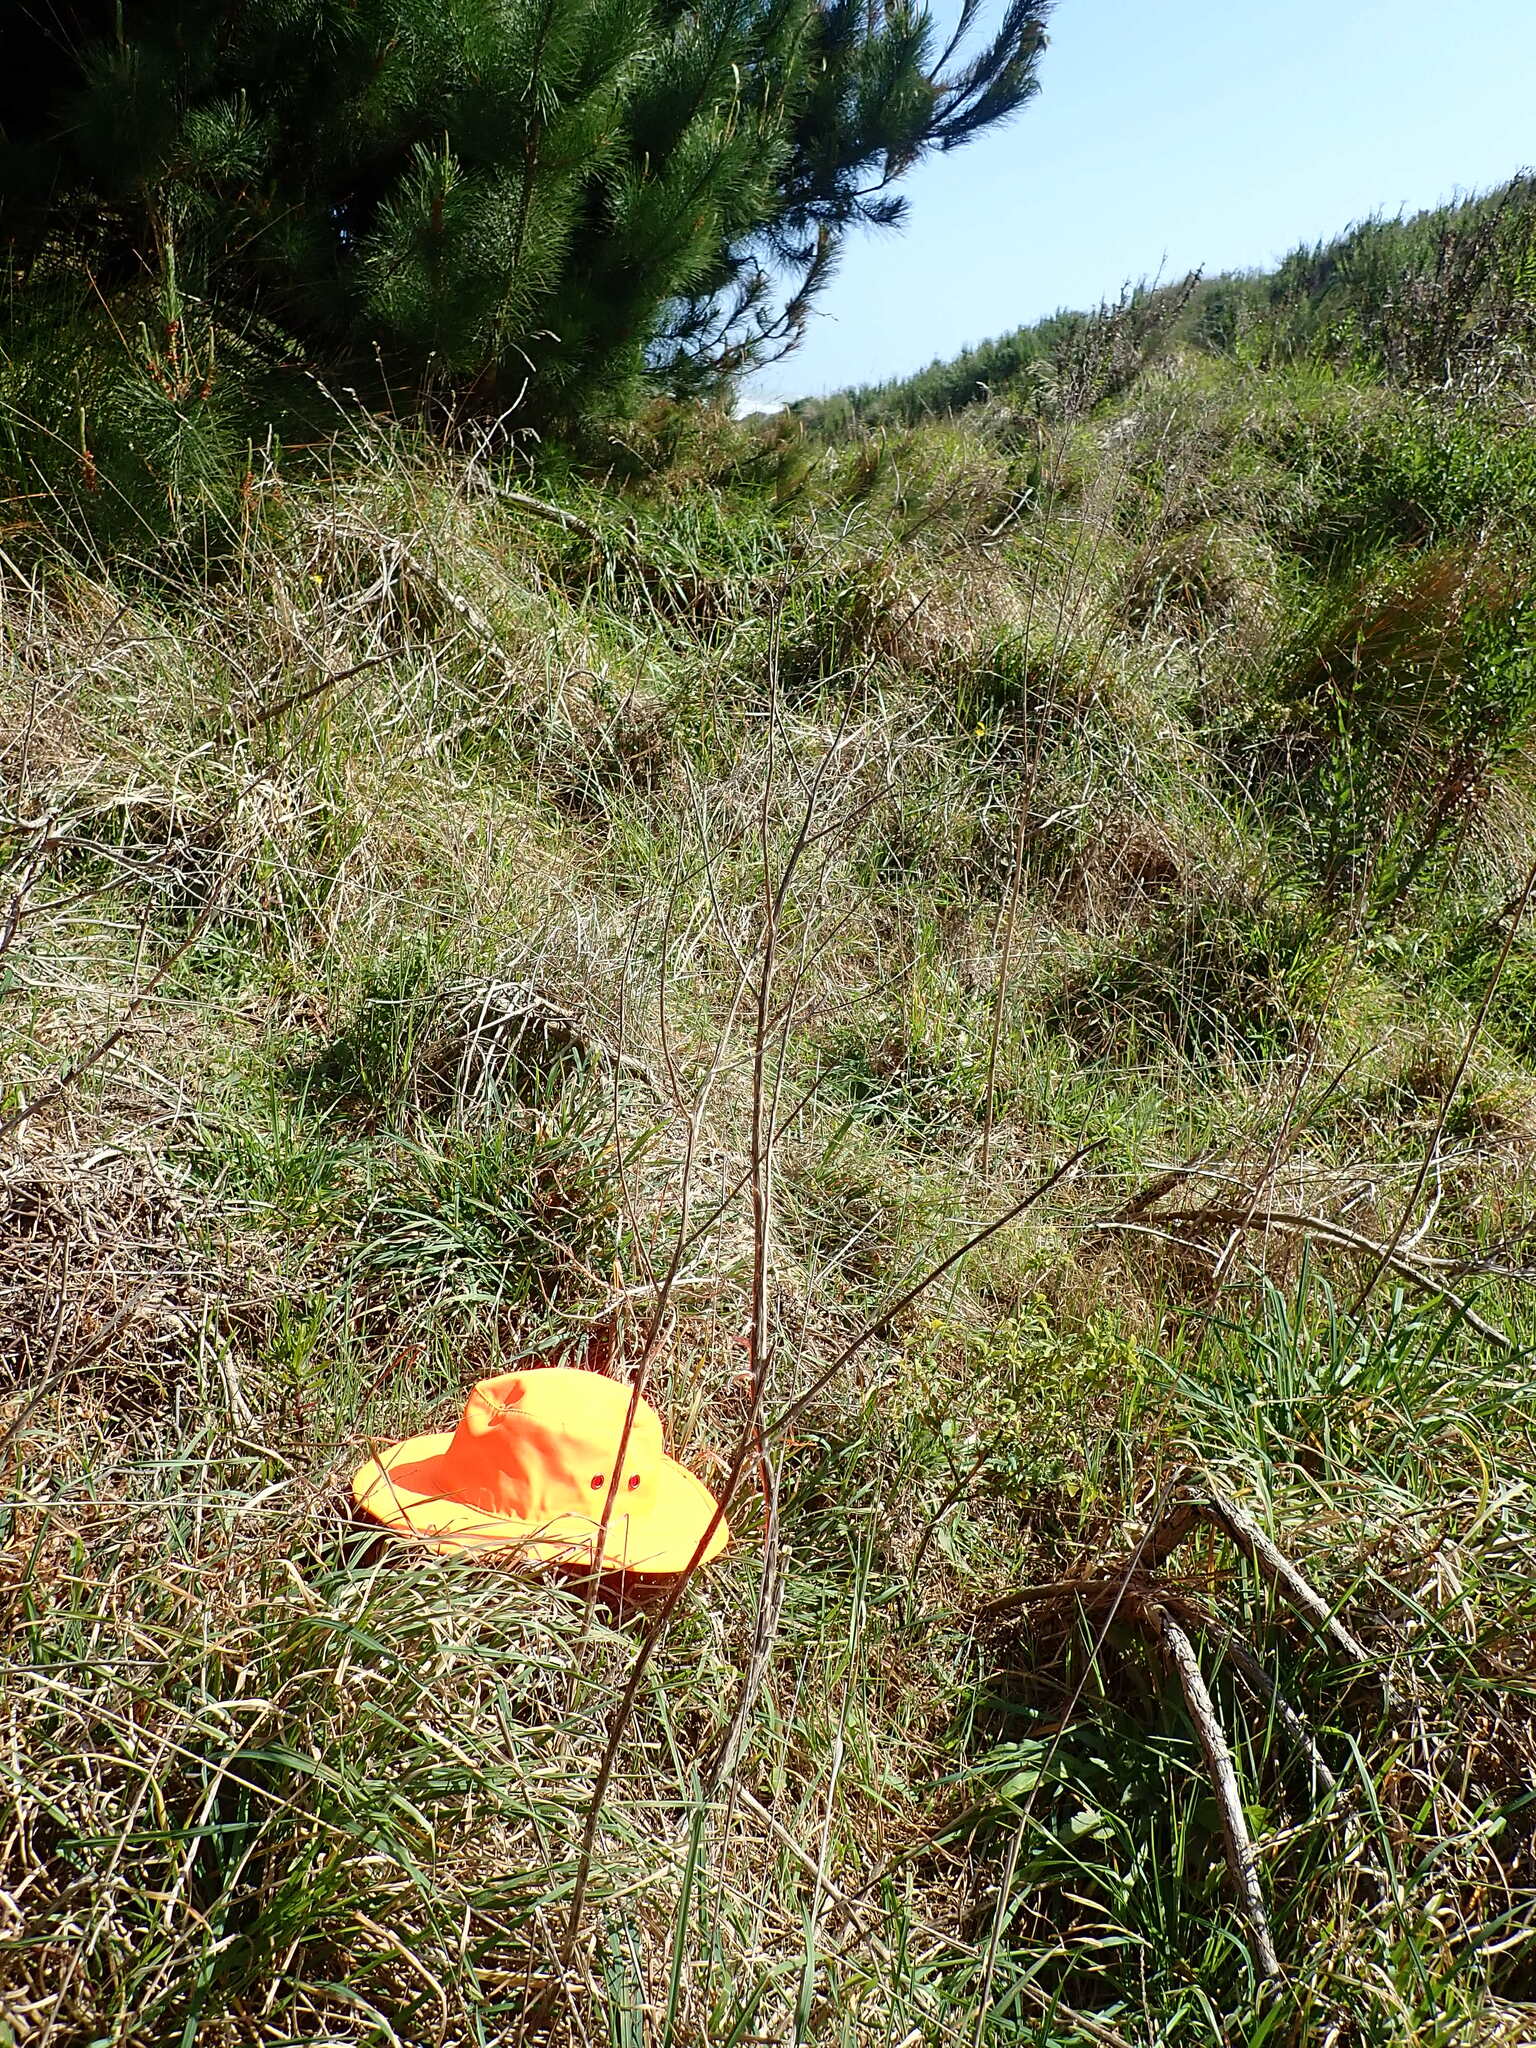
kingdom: Plantae
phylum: Tracheophyta
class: Magnoliopsida
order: Caryophyllales
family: Polygonaceae
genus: Rumex
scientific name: Rumex sagittatus
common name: Climbing dock
